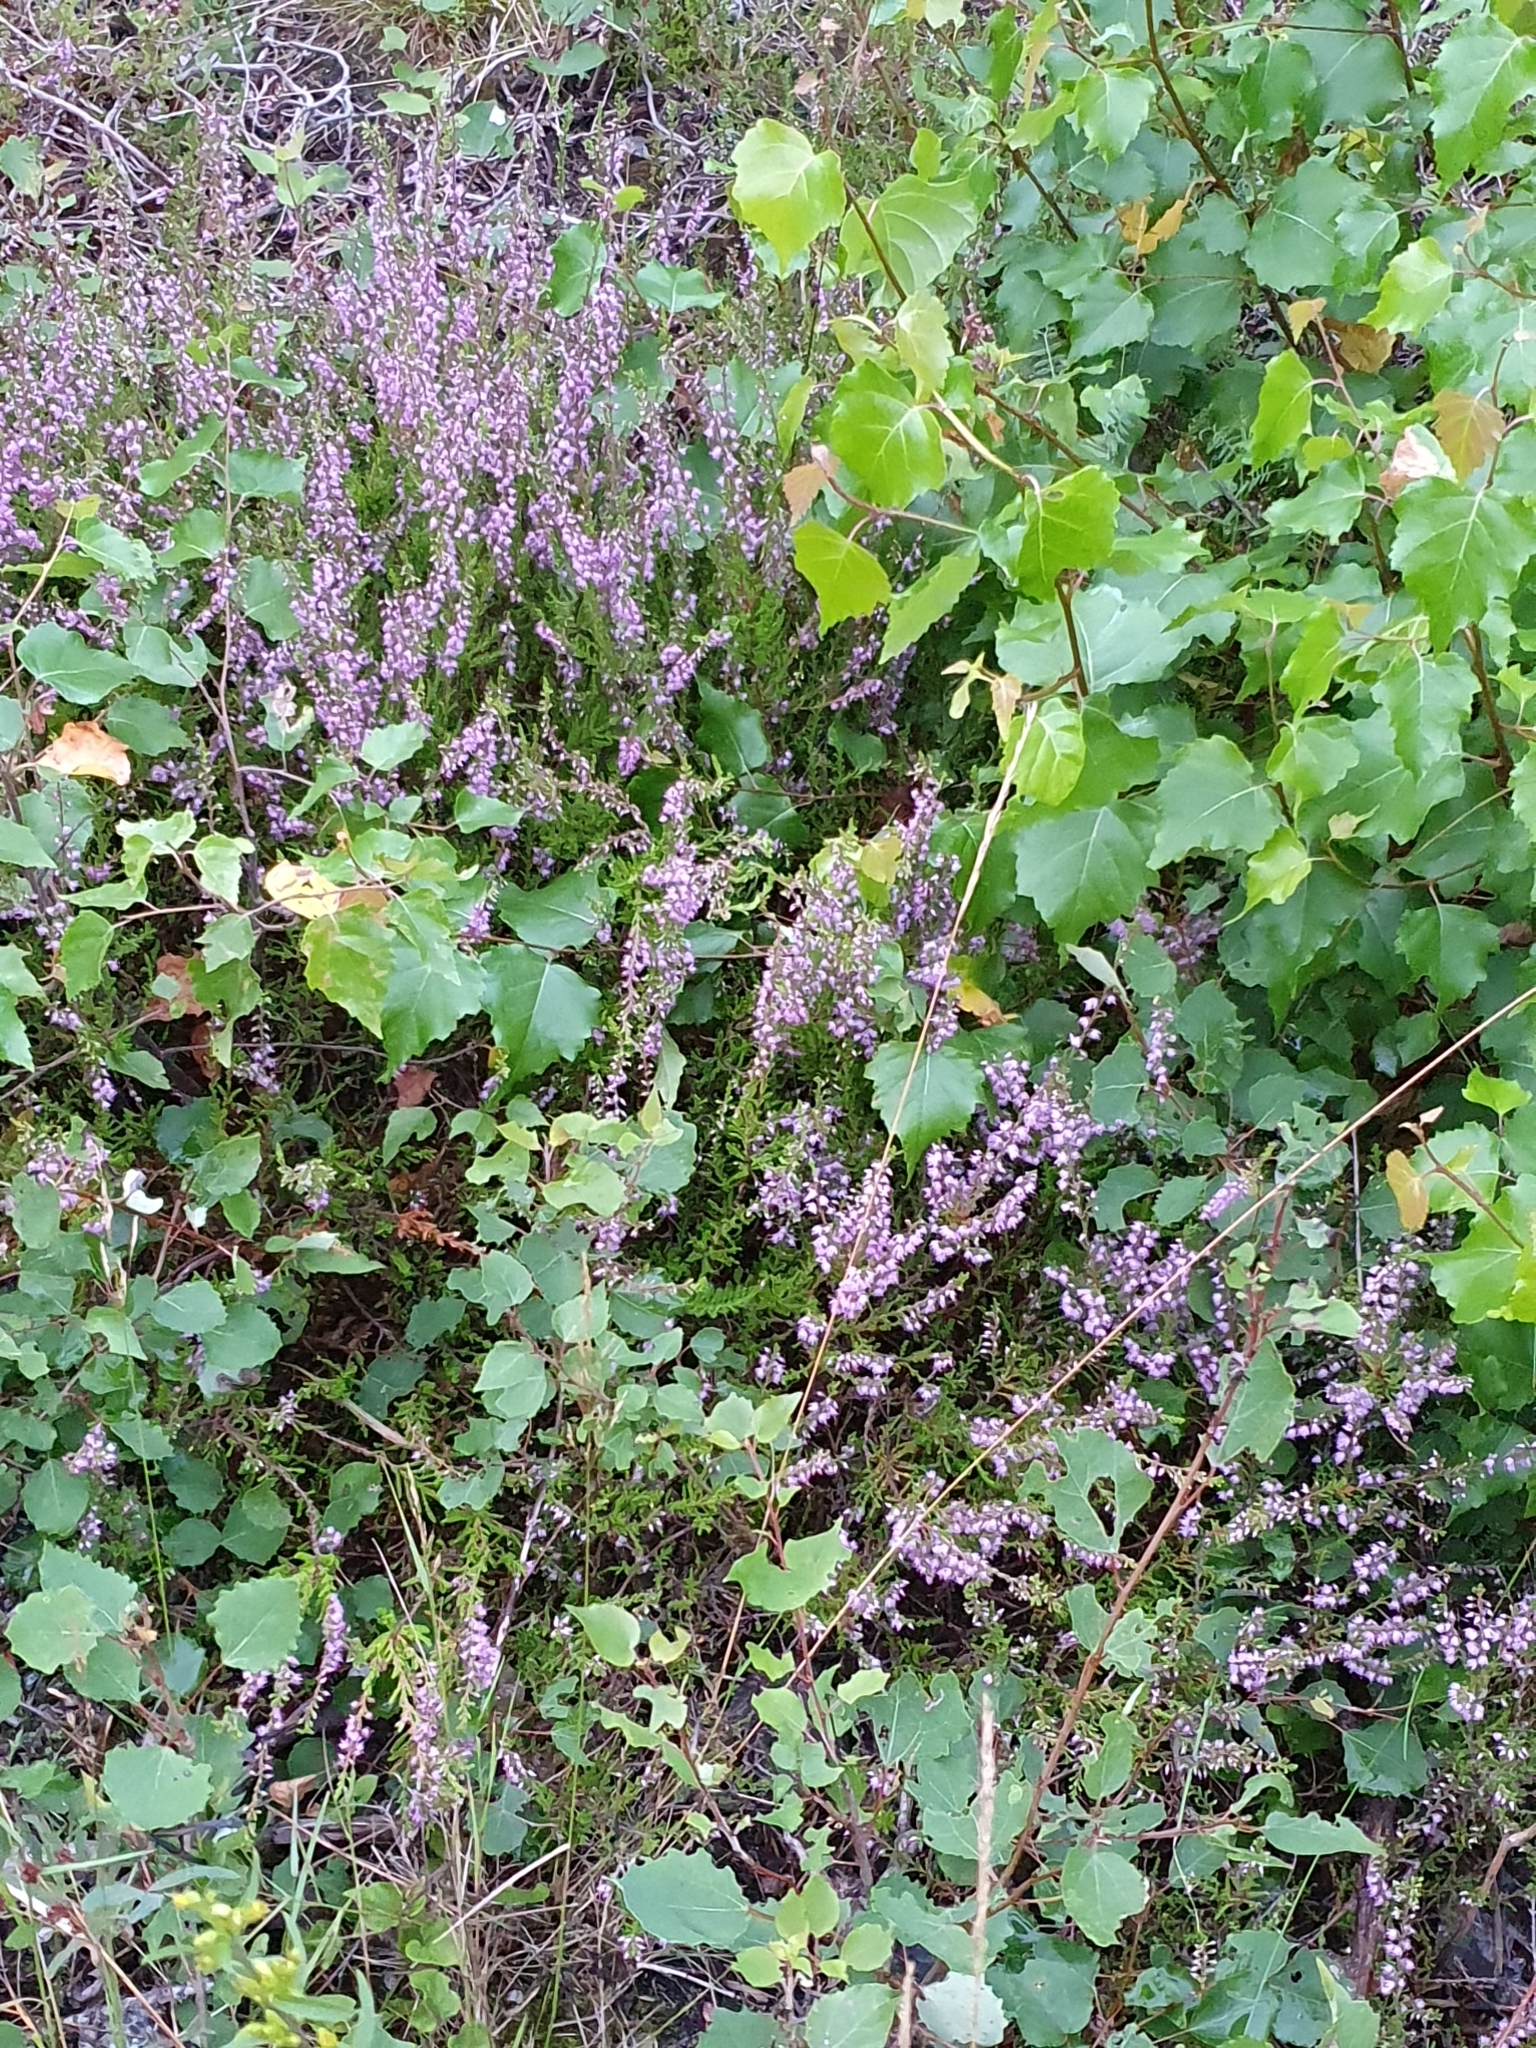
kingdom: Plantae
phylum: Tracheophyta
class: Magnoliopsida
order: Ericales
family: Ericaceae
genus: Calluna
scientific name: Calluna vulgaris
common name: Heather
